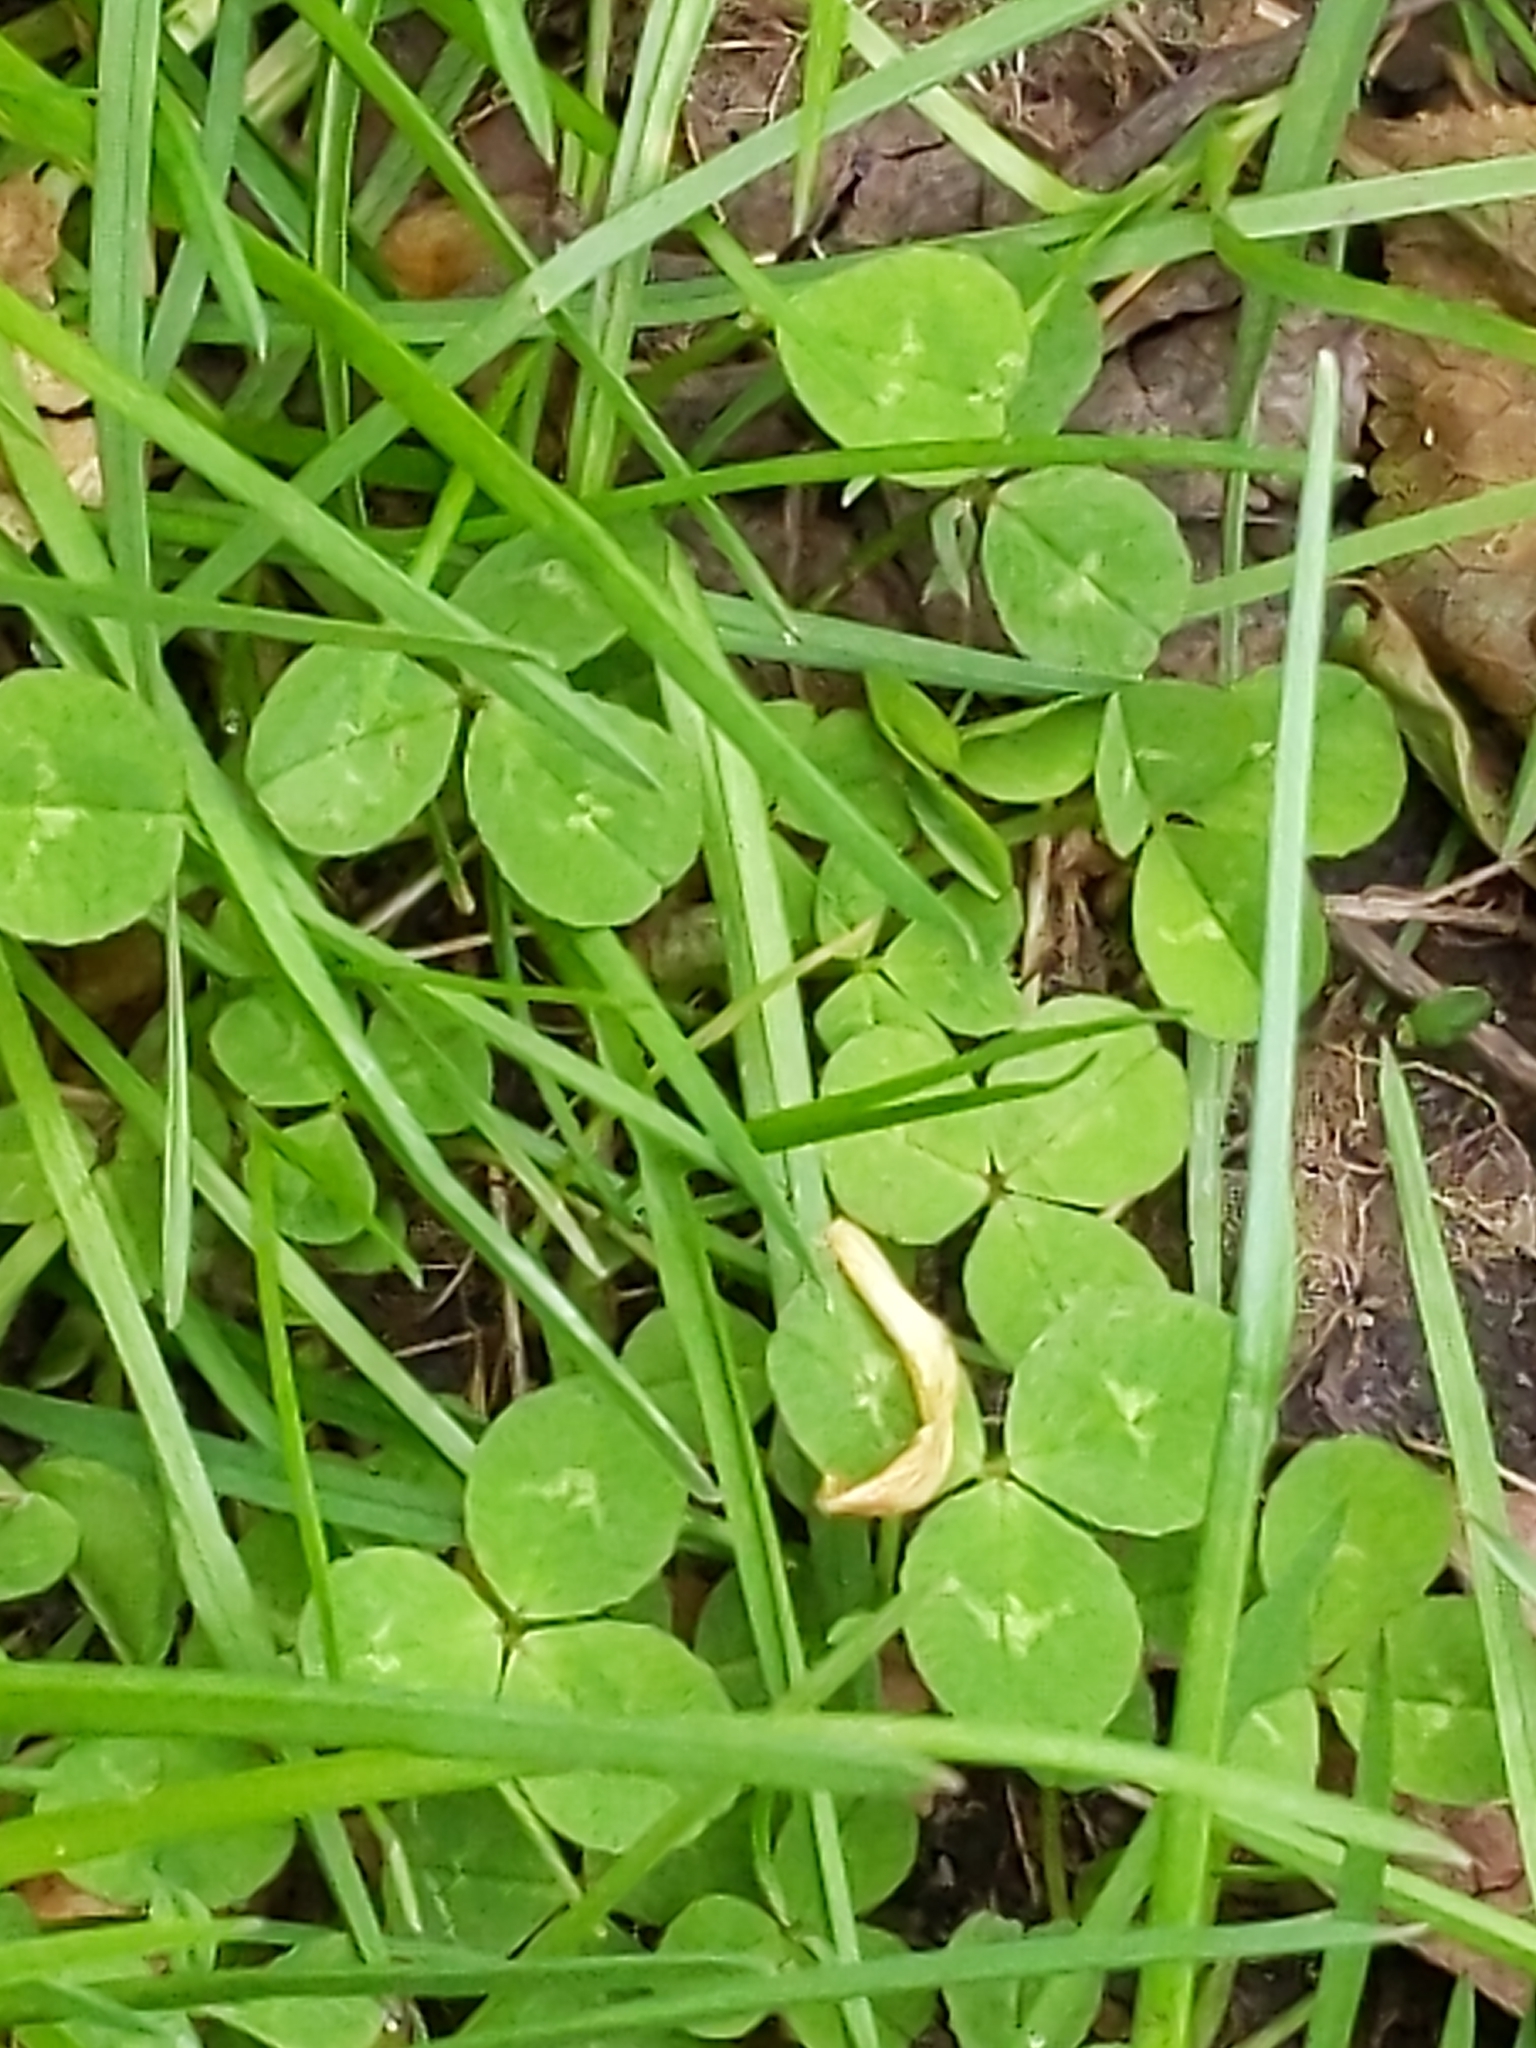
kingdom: Plantae
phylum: Tracheophyta
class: Magnoliopsida
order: Fabales
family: Fabaceae
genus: Trifolium
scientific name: Trifolium repens
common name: White clover
